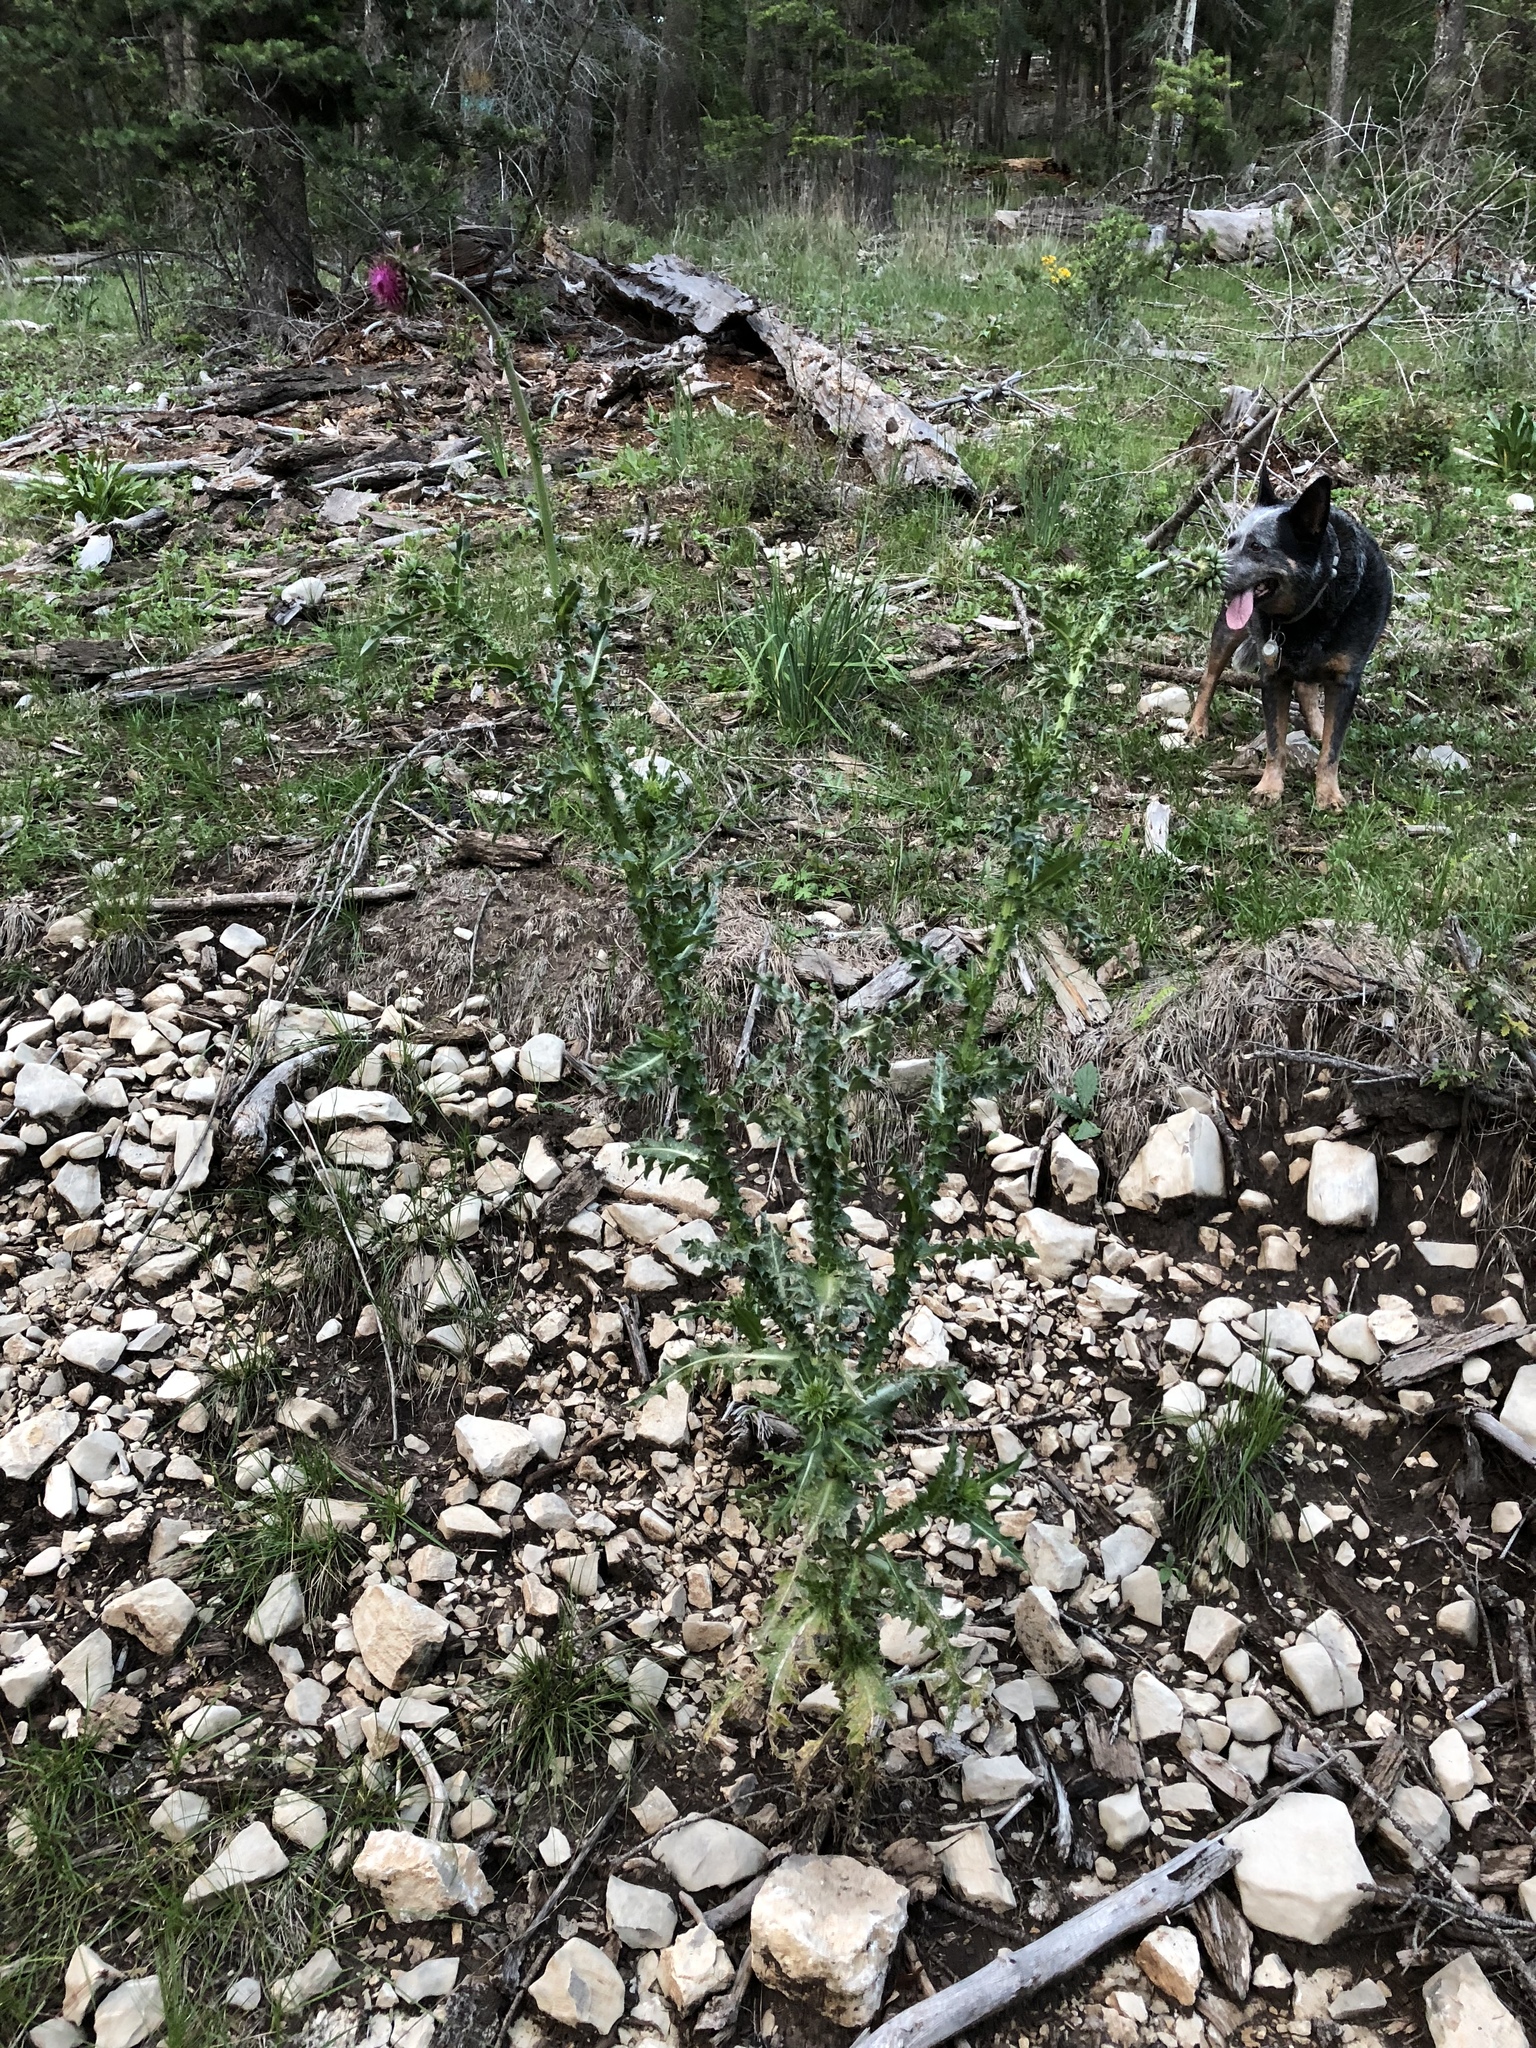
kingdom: Plantae
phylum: Tracheophyta
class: Magnoliopsida
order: Asterales
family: Asteraceae
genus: Carduus
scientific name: Carduus nutans
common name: Musk thistle
